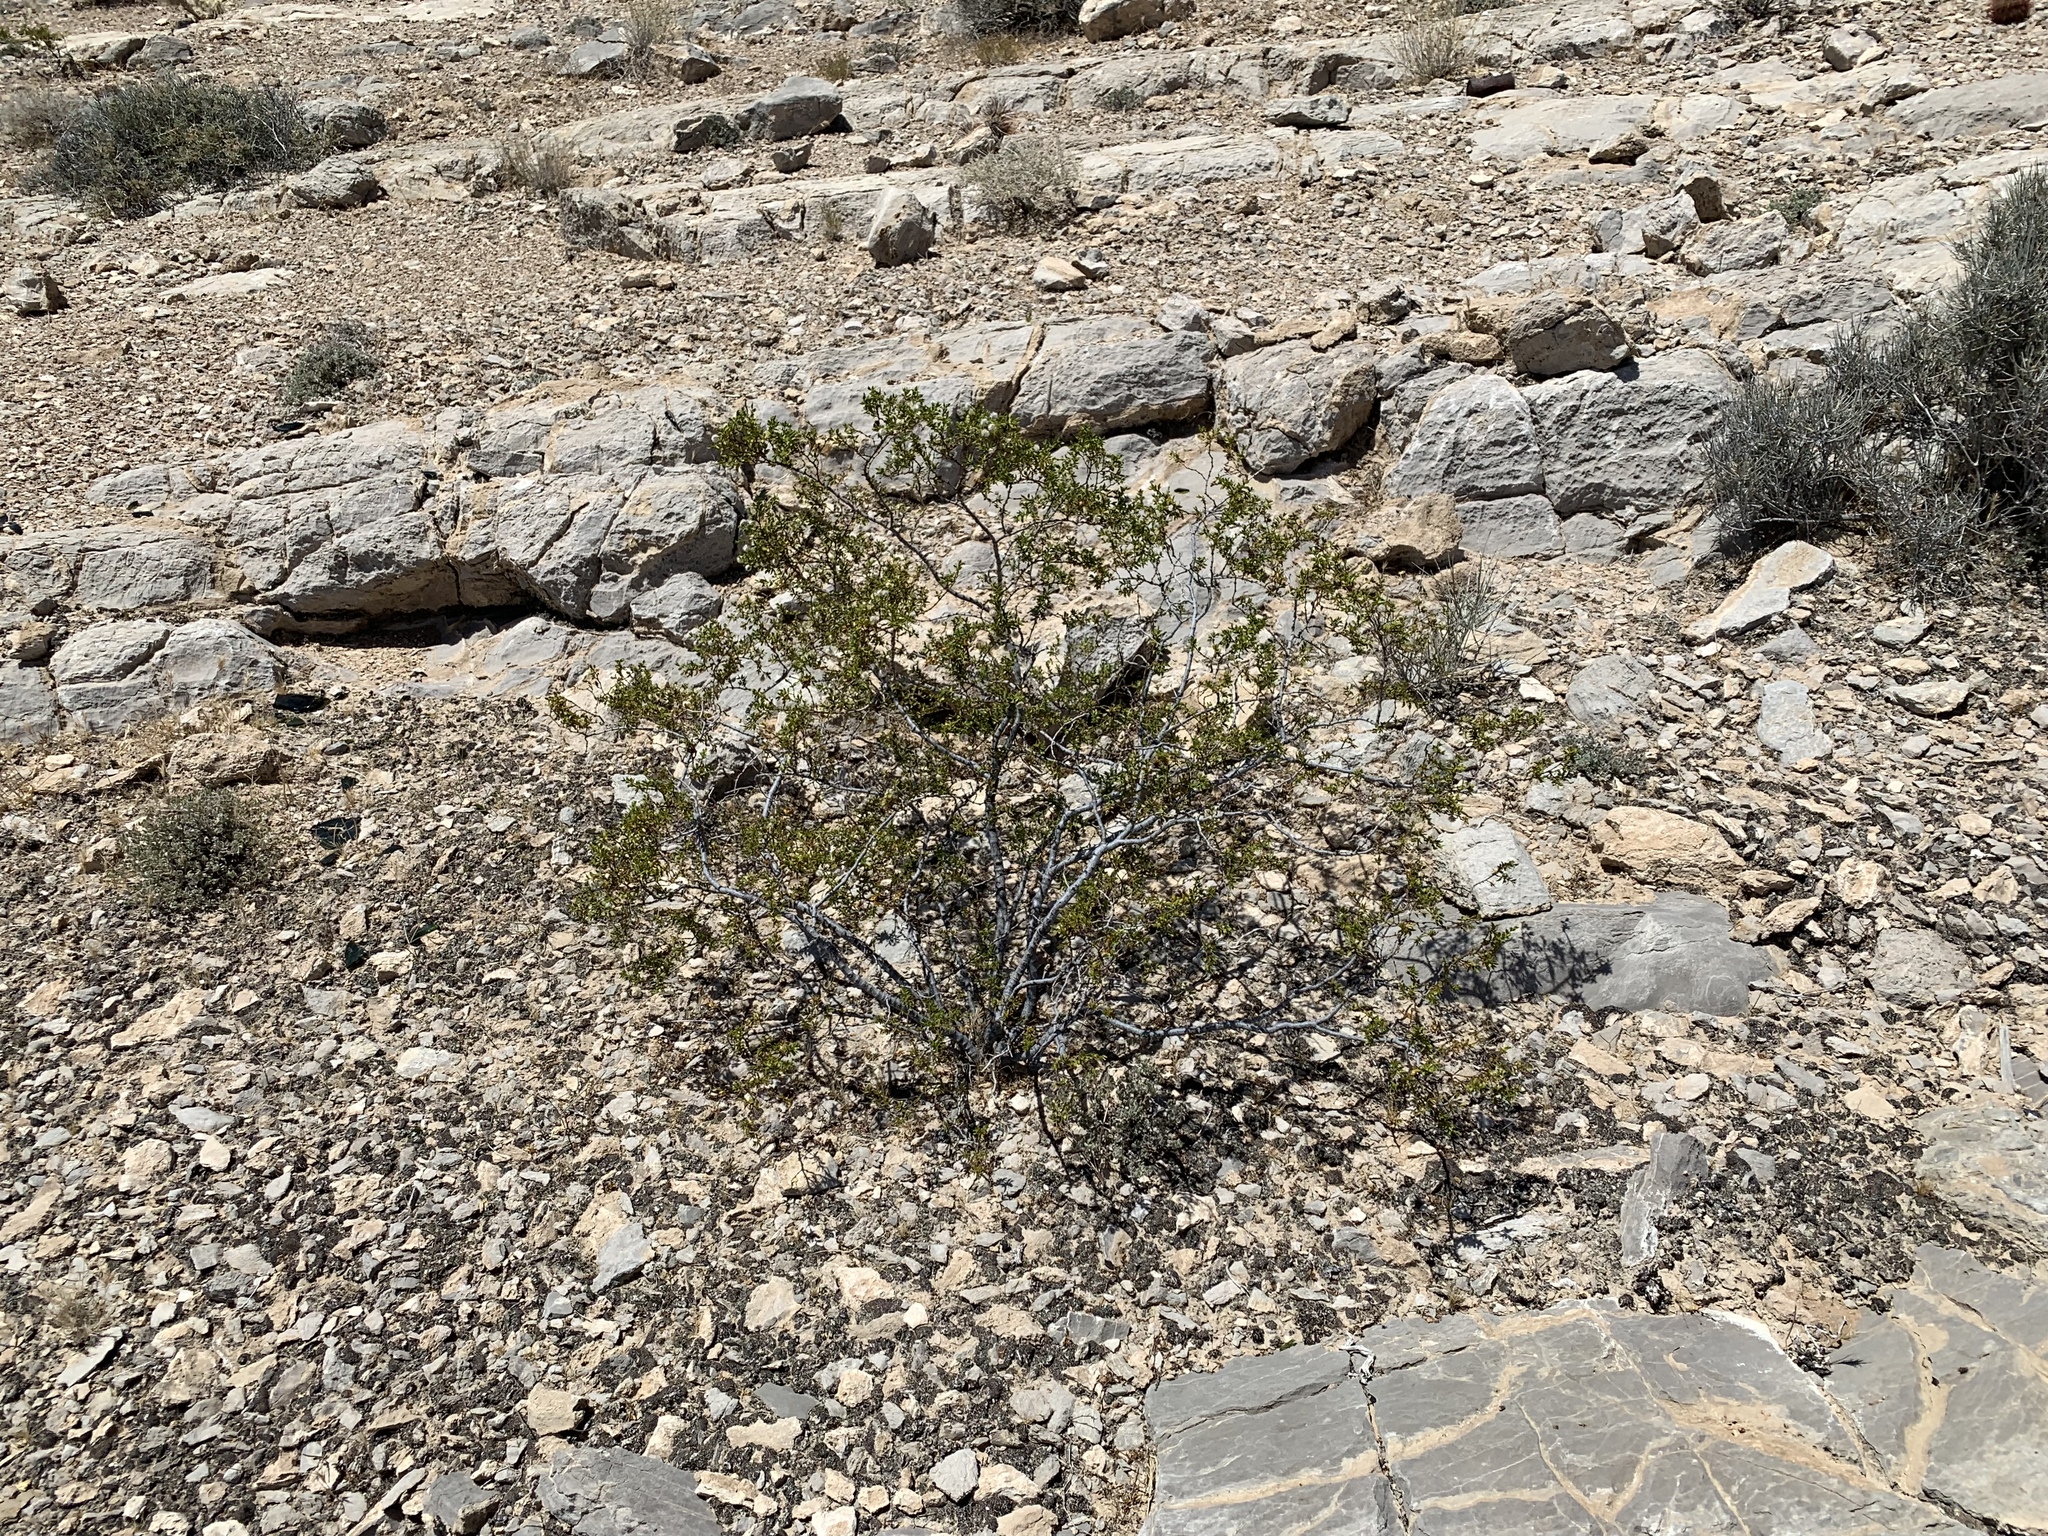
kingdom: Plantae
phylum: Tracheophyta
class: Magnoliopsida
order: Zygophyllales
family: Zygophyllaceae
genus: Larrea
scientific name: Larrea tridentata
